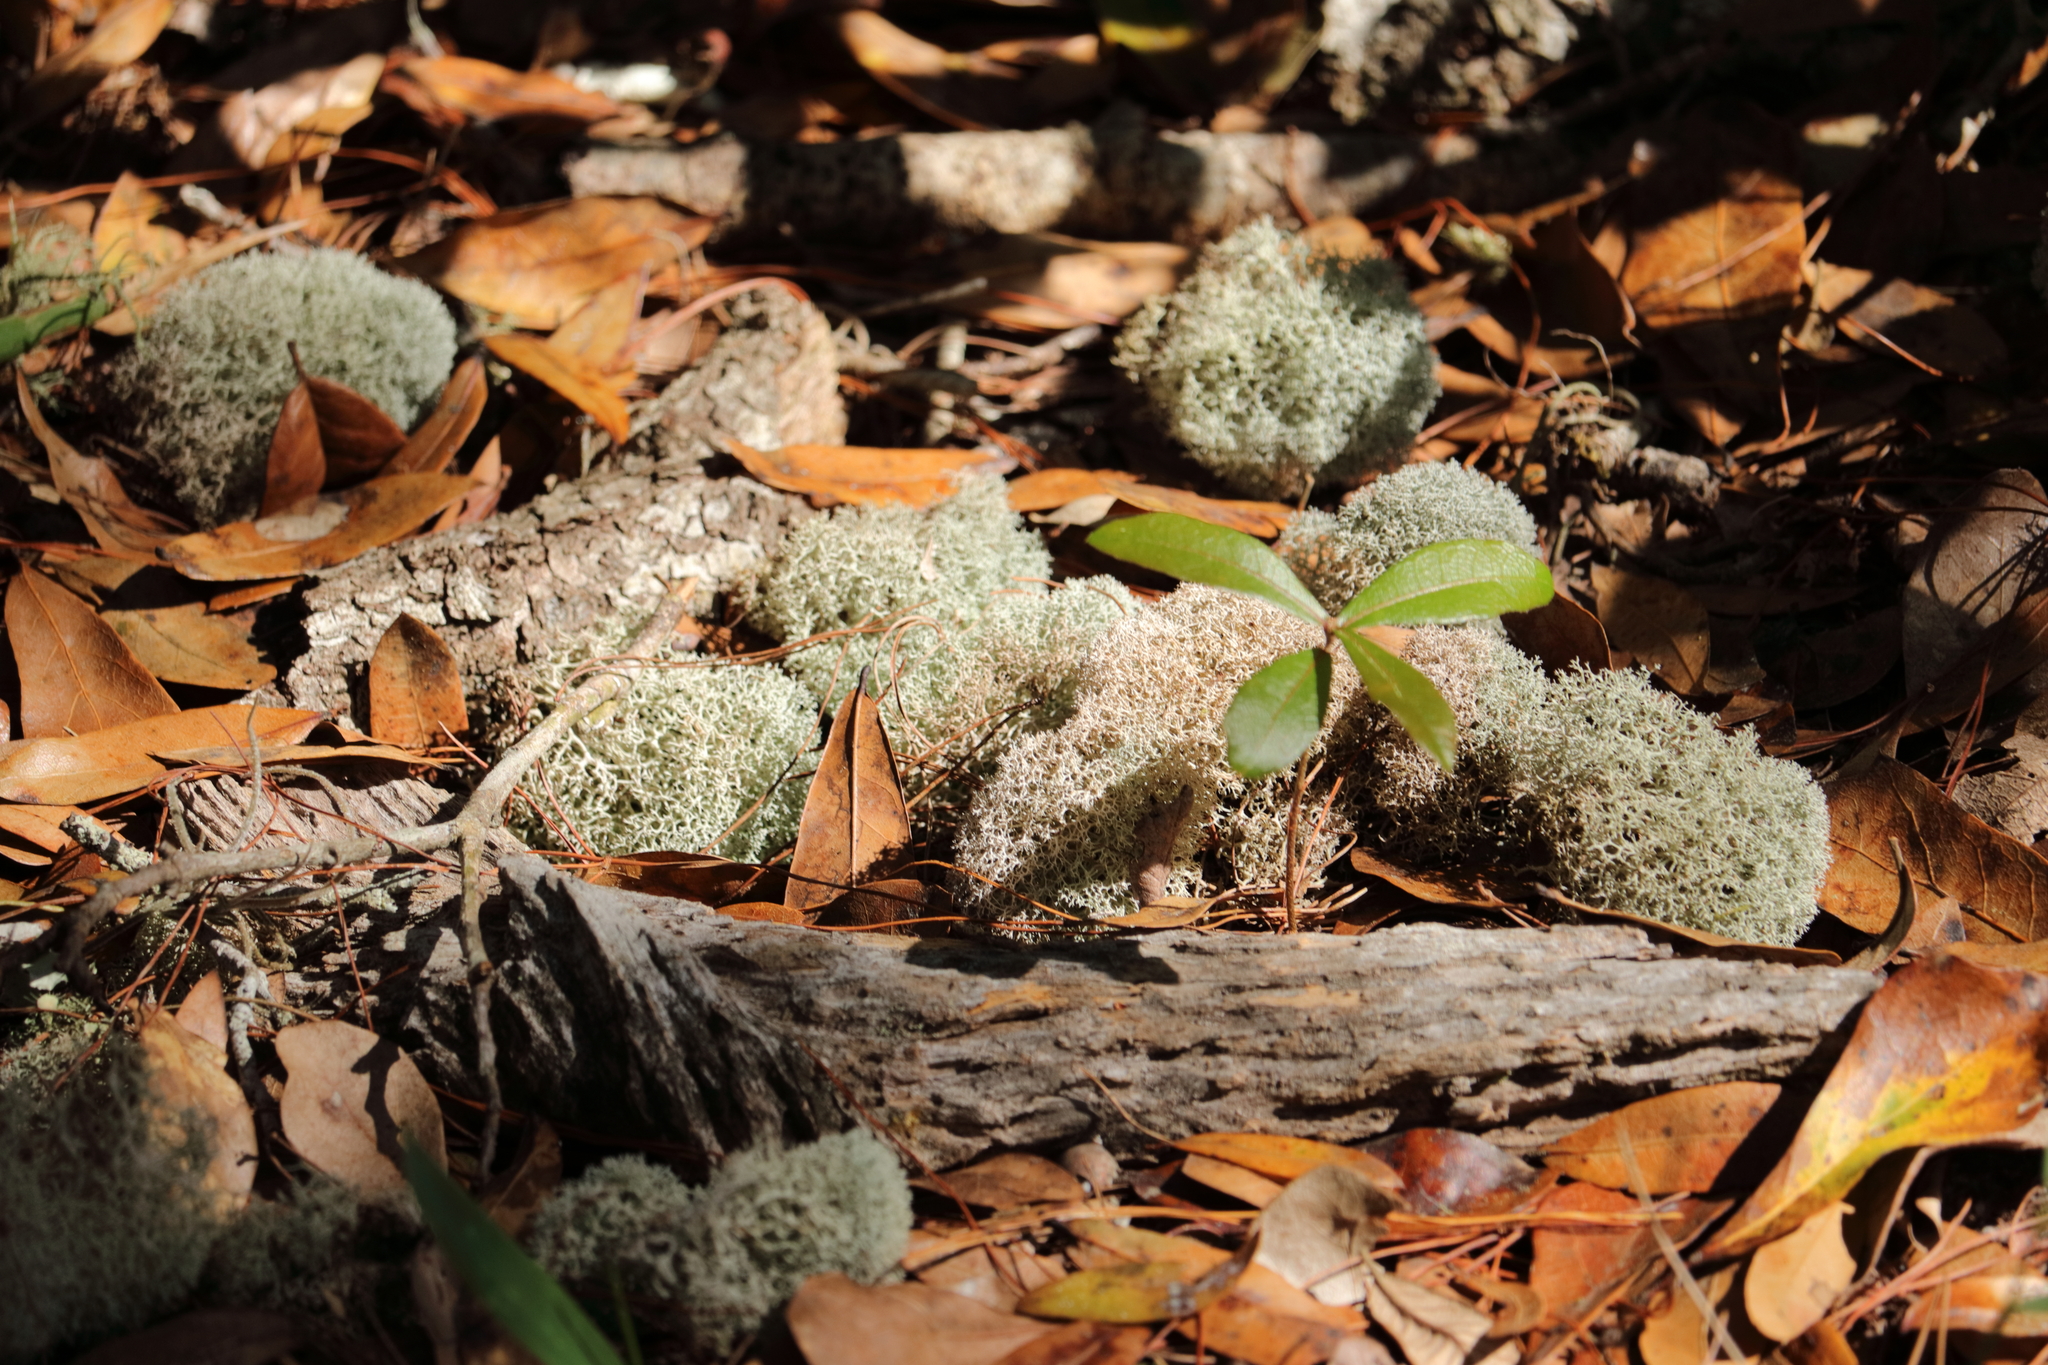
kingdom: Fungi
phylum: Ascomycota
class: Lecanoromycetes
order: Lecanorales
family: Cladoniaceae
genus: Cladonia
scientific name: Cladonia evansii
